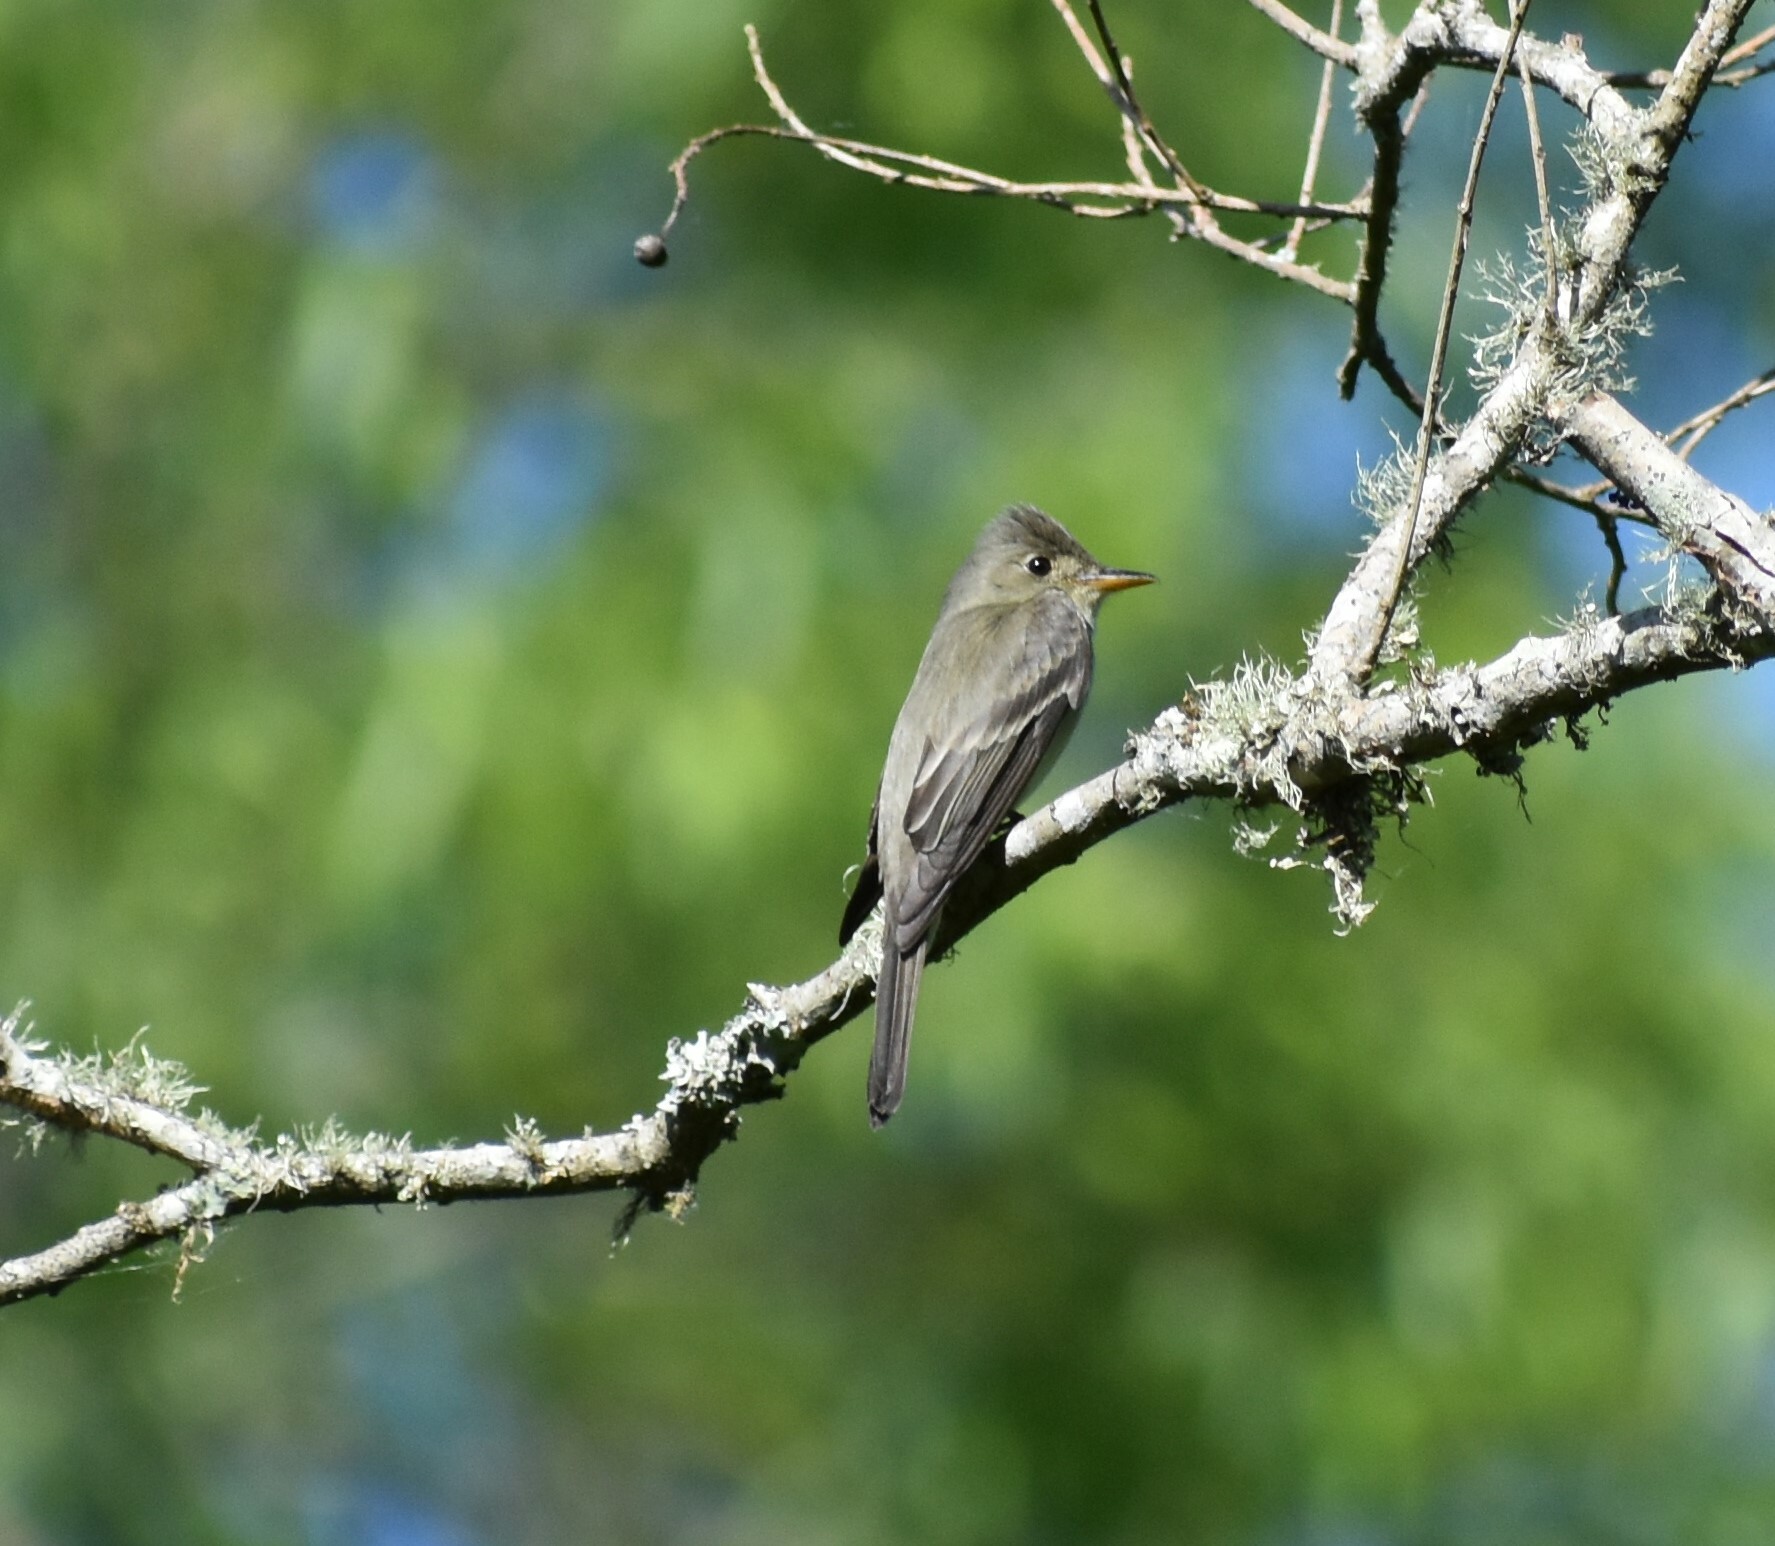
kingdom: Animalia
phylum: Chordata
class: Aves
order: Passeriformes
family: Tyrannidae
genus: Contopus
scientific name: Contopus virens
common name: Eastern wood-pewee
